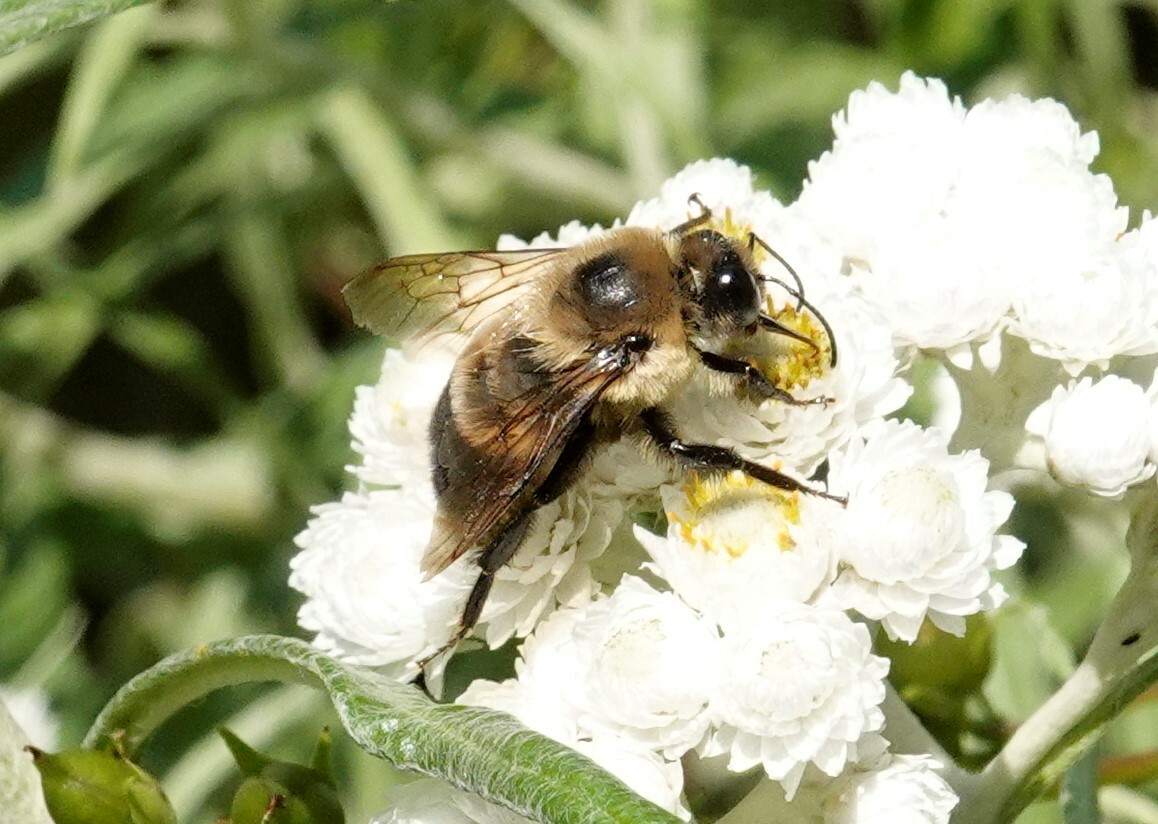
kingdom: Animalia
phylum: Arthropoda
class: Insecta
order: Hymenoptera
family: Apidae
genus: Bombus
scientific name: Bombus griseocollis
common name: Brown-belted bumble bee
